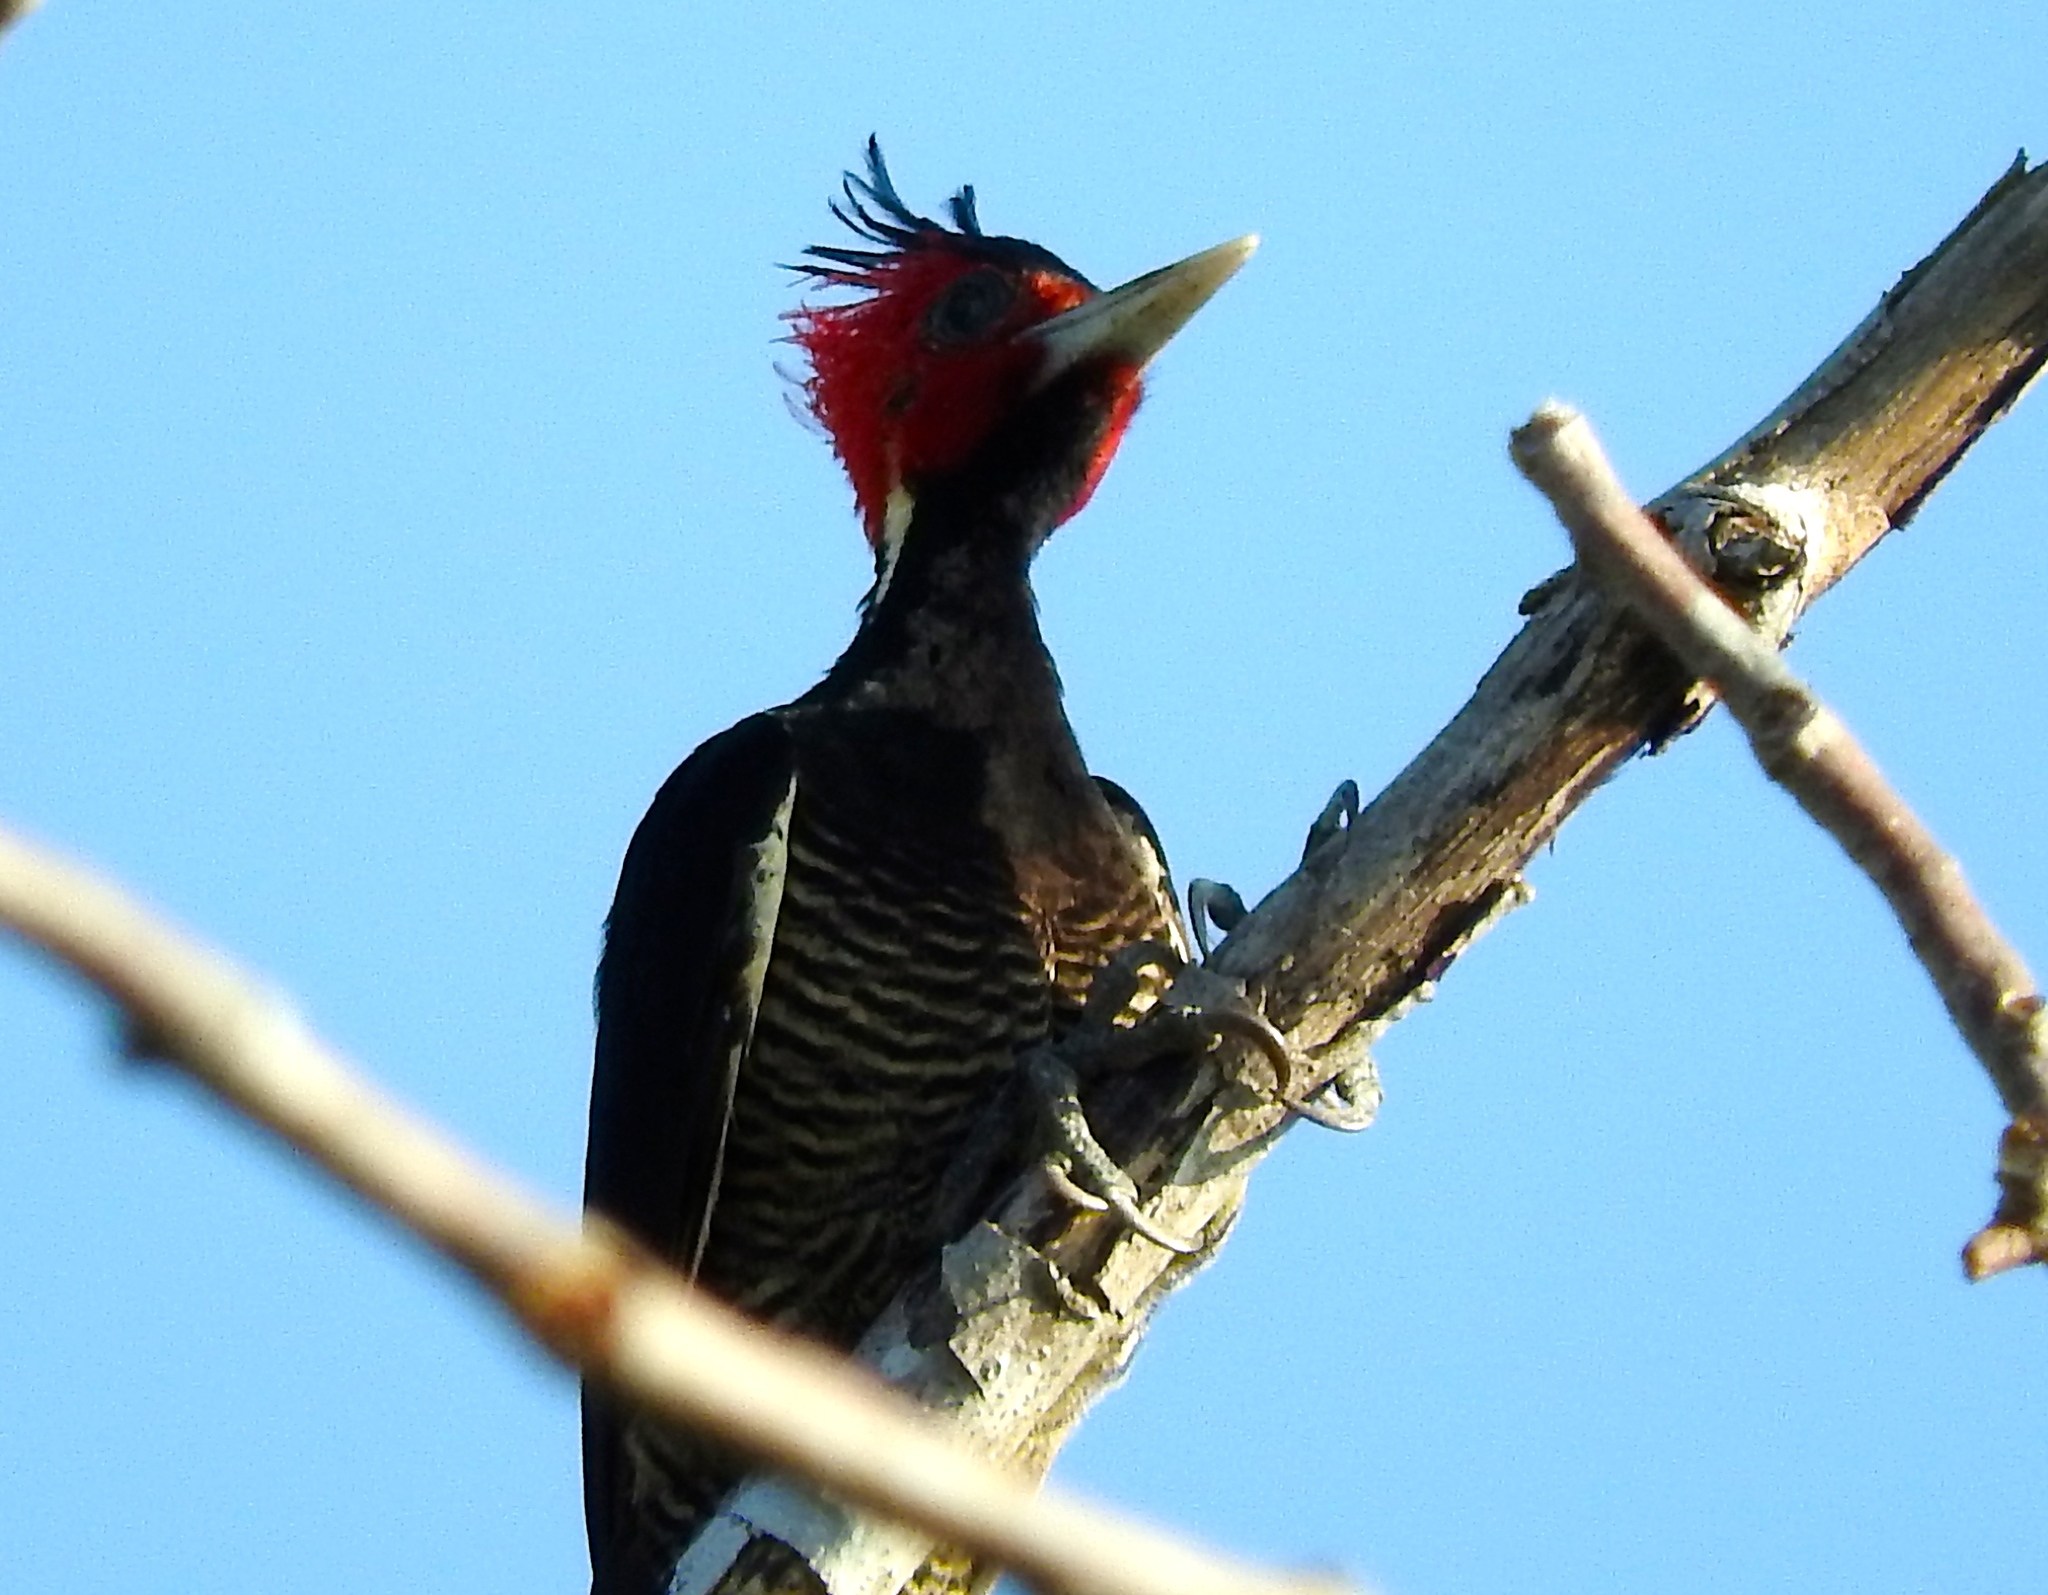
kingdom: Animalia
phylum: Chordata
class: Aves
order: Piciformes
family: Picidae
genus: Campephilus
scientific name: Campephilus guatemalensis
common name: Pale-billed woodpecker
